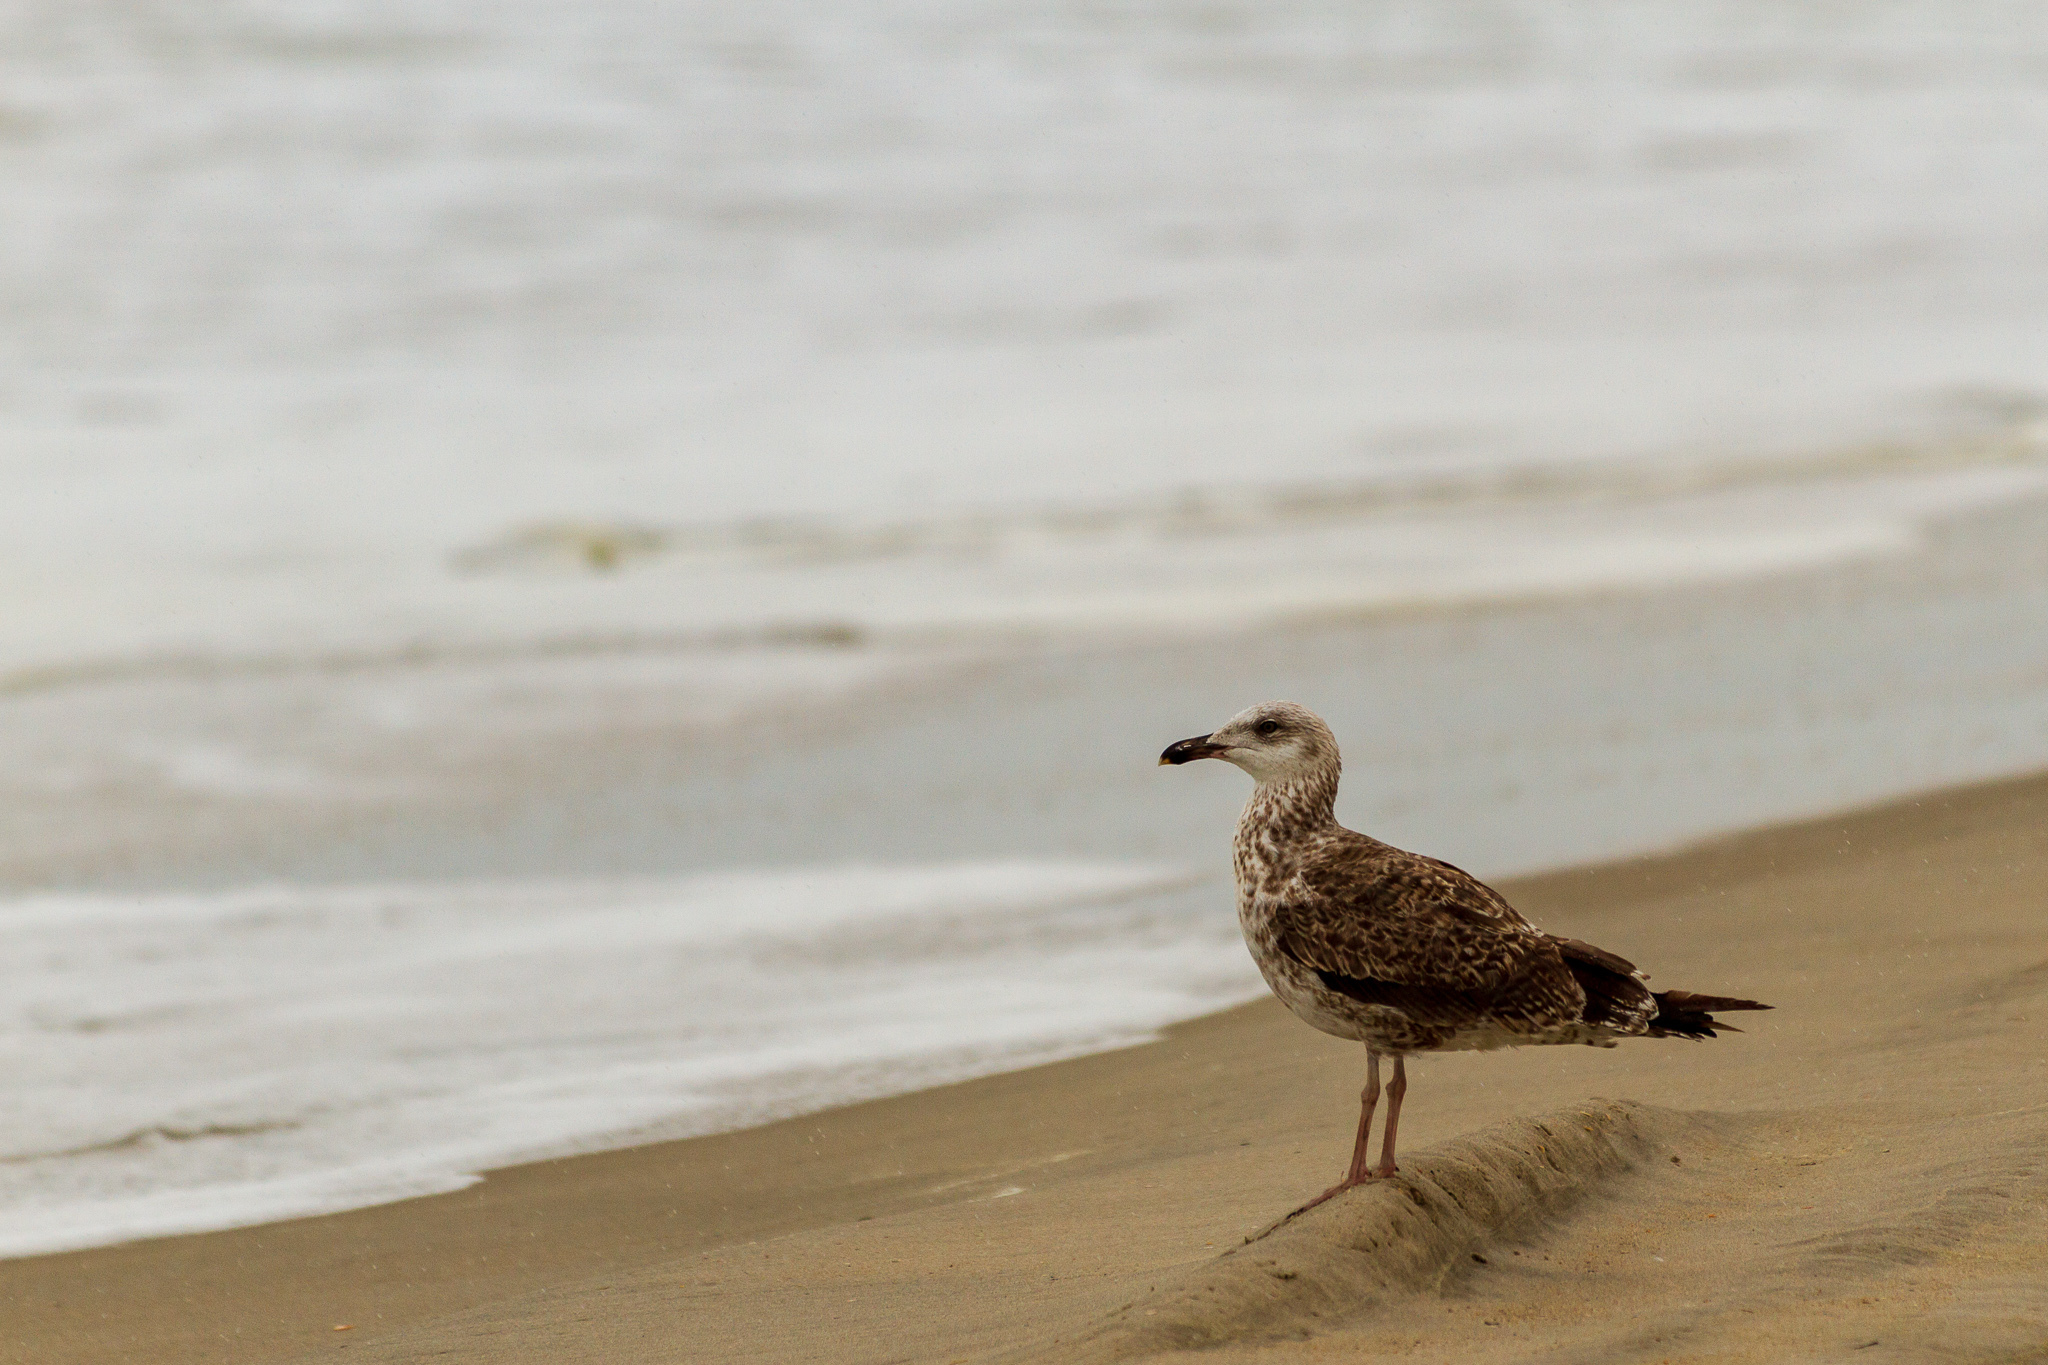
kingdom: Animalia
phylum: Chordata
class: Aves
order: Charadriiformes
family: Laridae
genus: Larus
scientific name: Larus marinus
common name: Great black-backed gull
